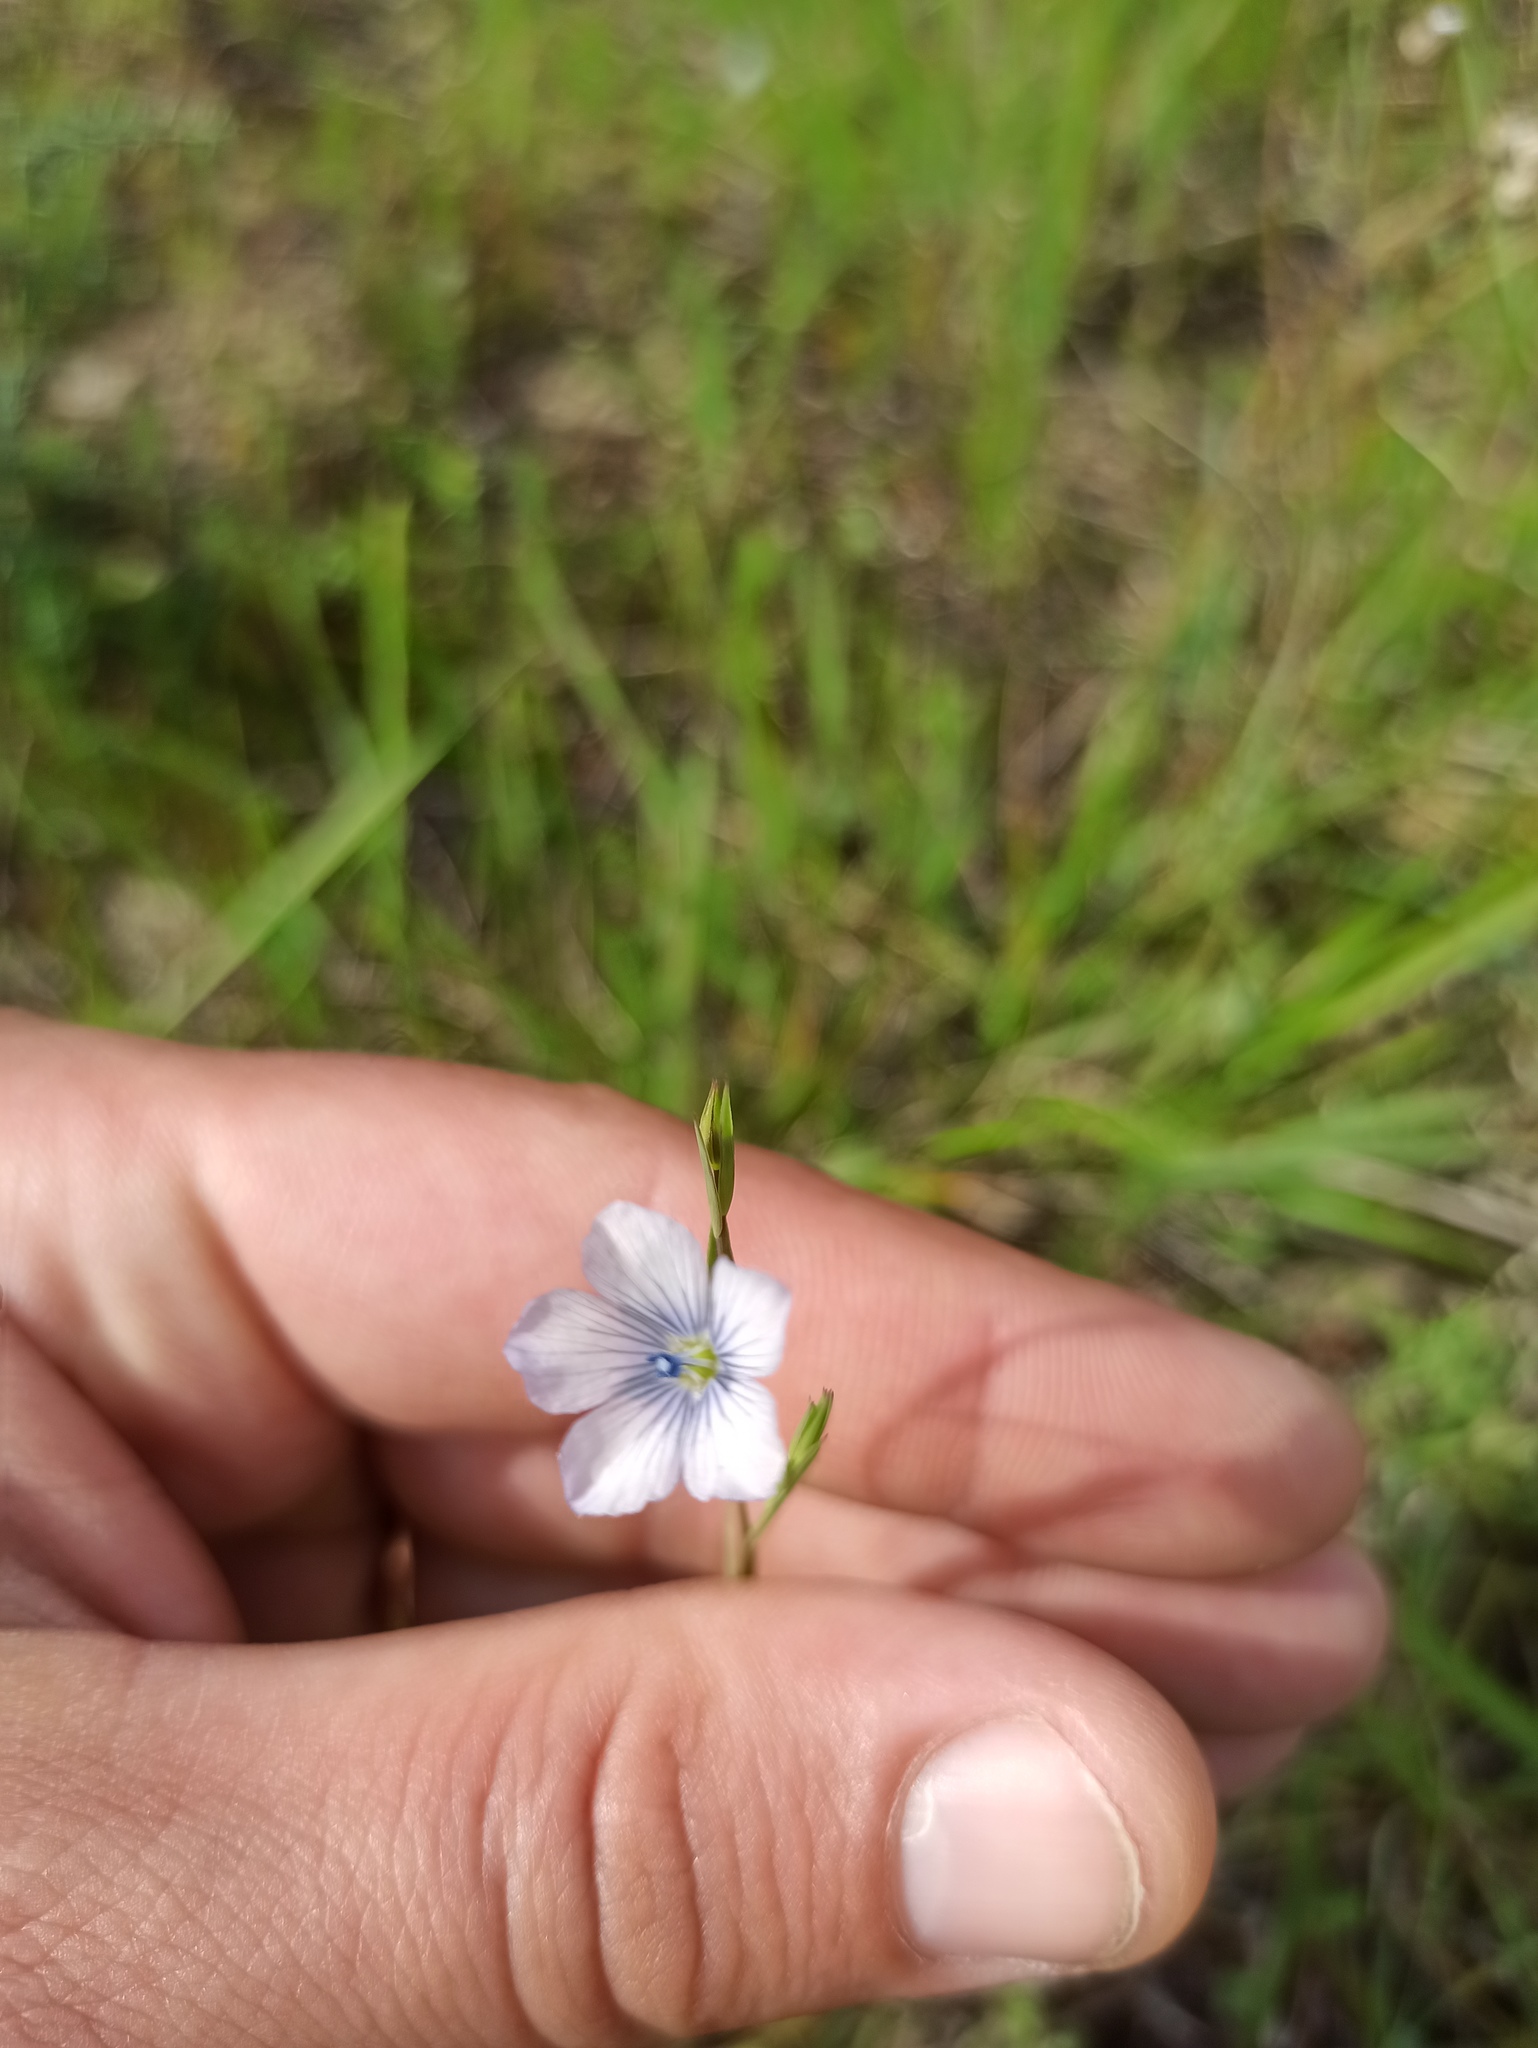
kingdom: Plantae
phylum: Tracheophyta
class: Magnoliopsida
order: Malpighiales
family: Linaceae
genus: Linum
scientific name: Linum bienne
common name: Pale flax
